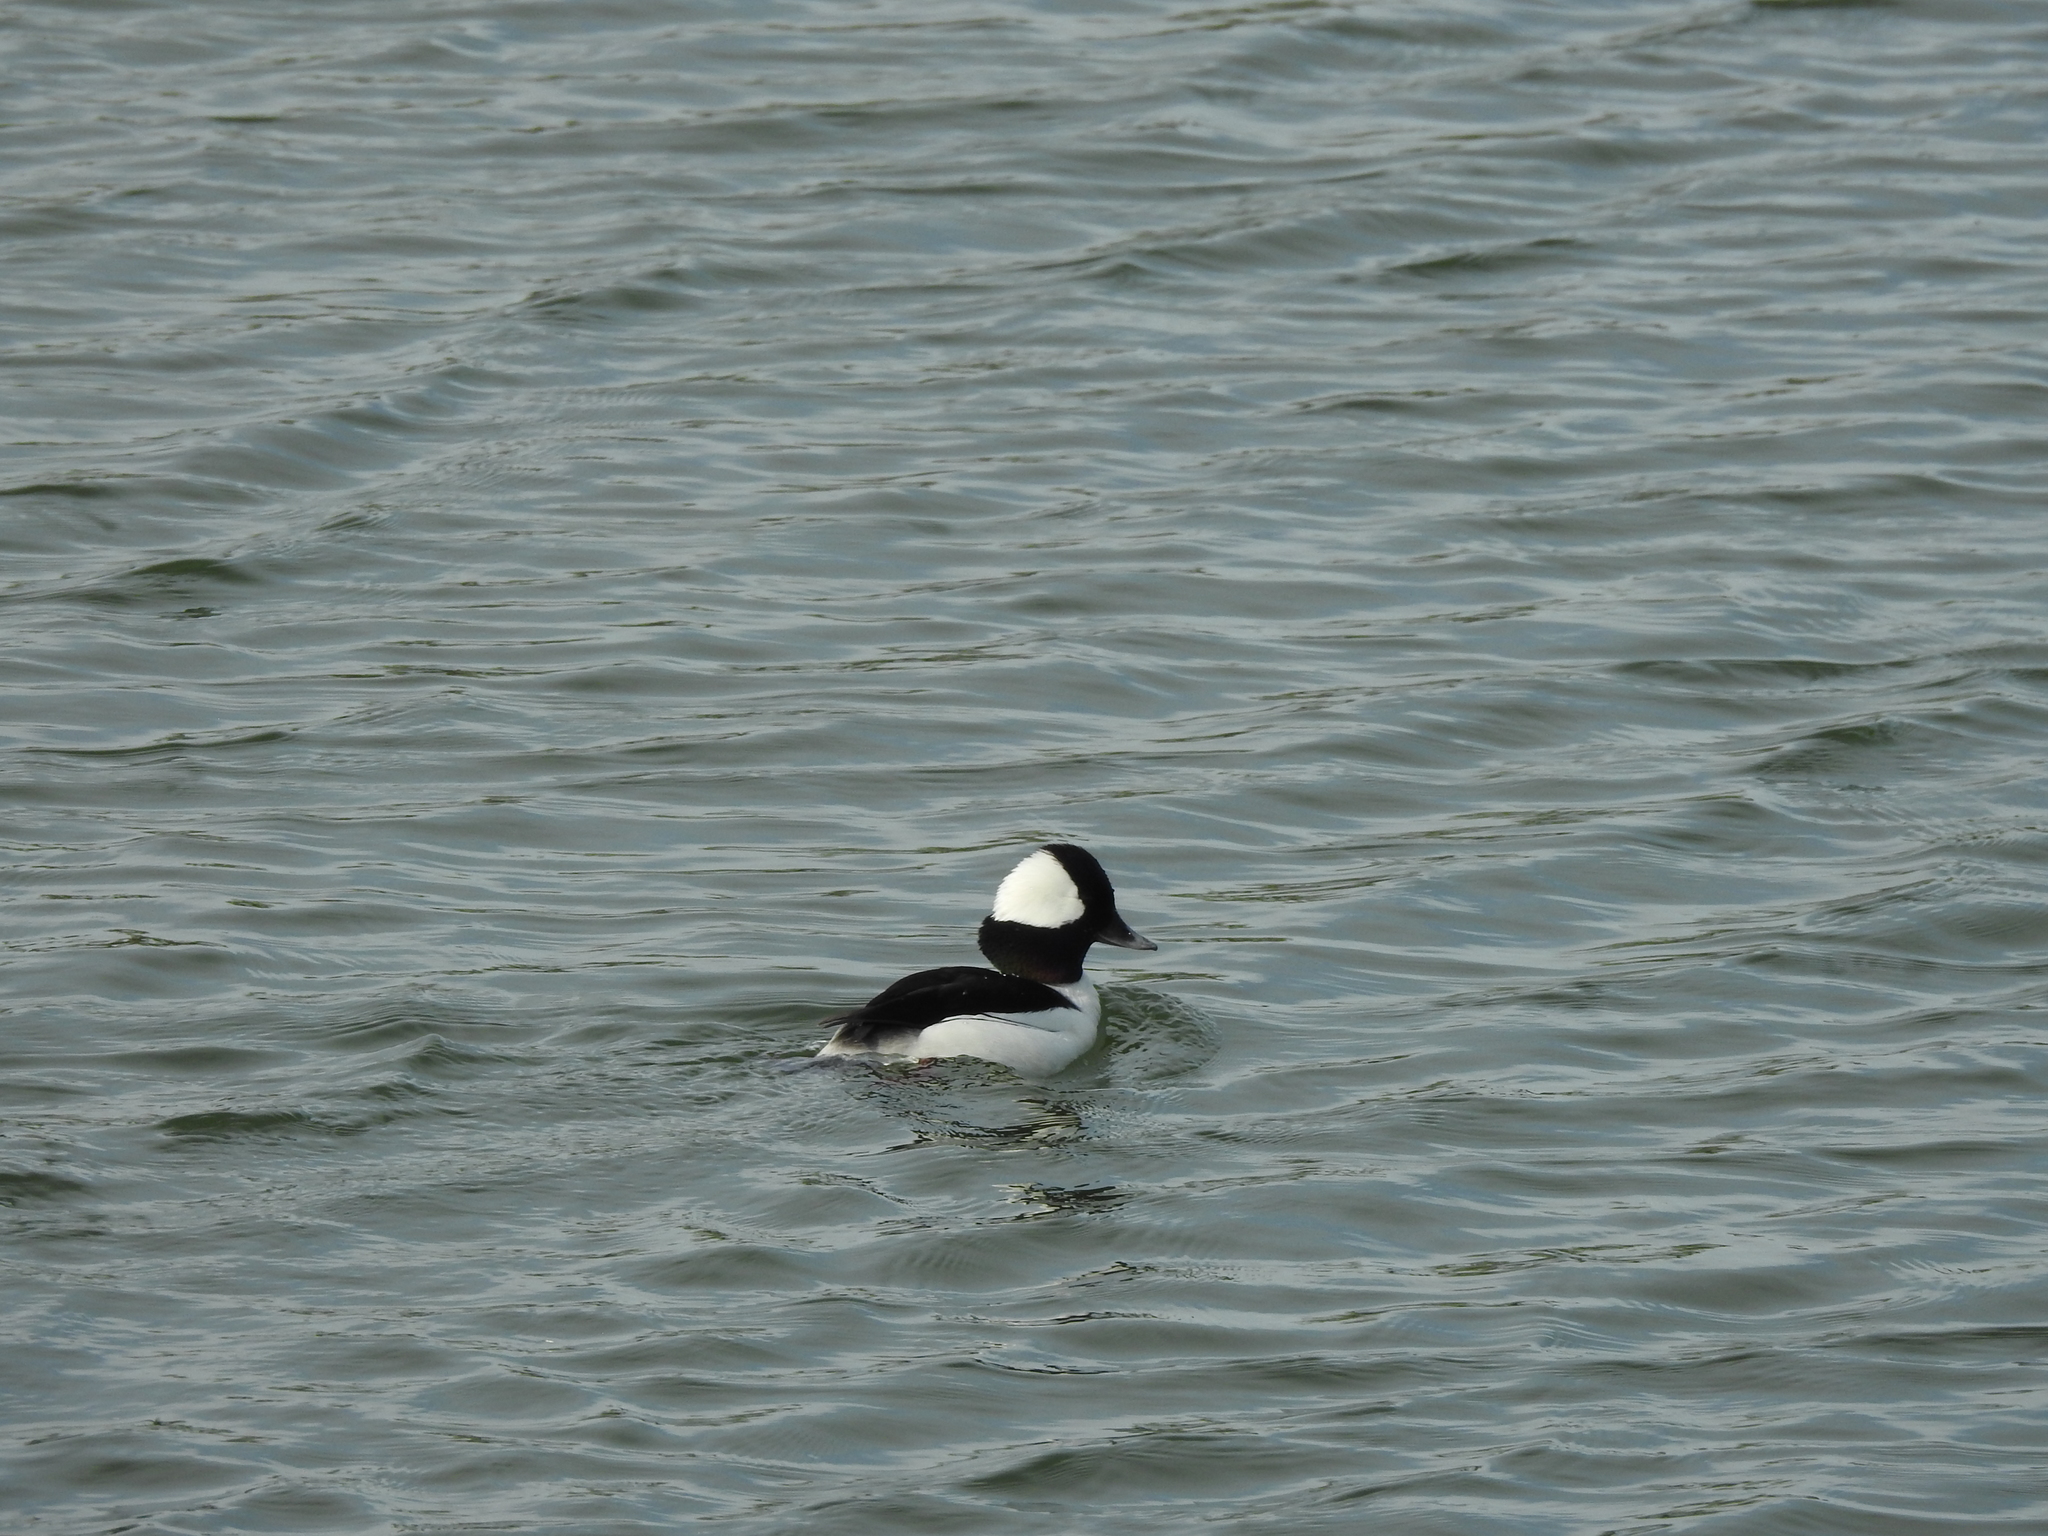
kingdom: Animalia
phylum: Chordata
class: Aves
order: Anseriformes
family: Anatidae
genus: Bucephala
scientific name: Bucephala albeola
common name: Bufflehead
